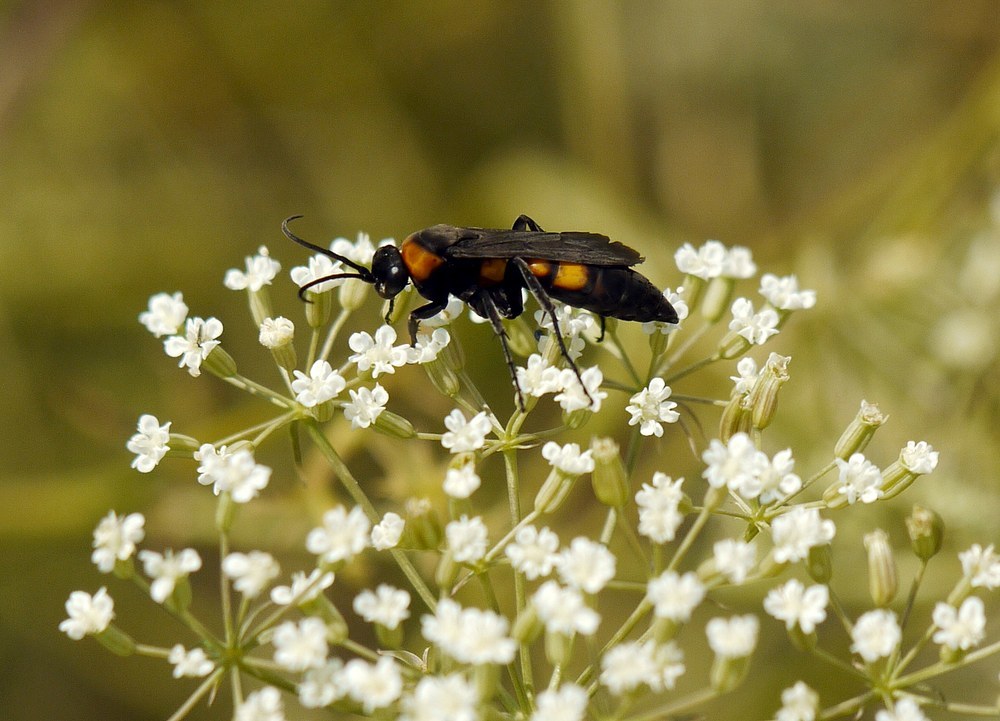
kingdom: Animalia
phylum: Arthropoda
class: Insecta
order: Hymenoptera
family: Pompilidae
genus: Eoferreola
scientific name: Eoferreola erythraea
